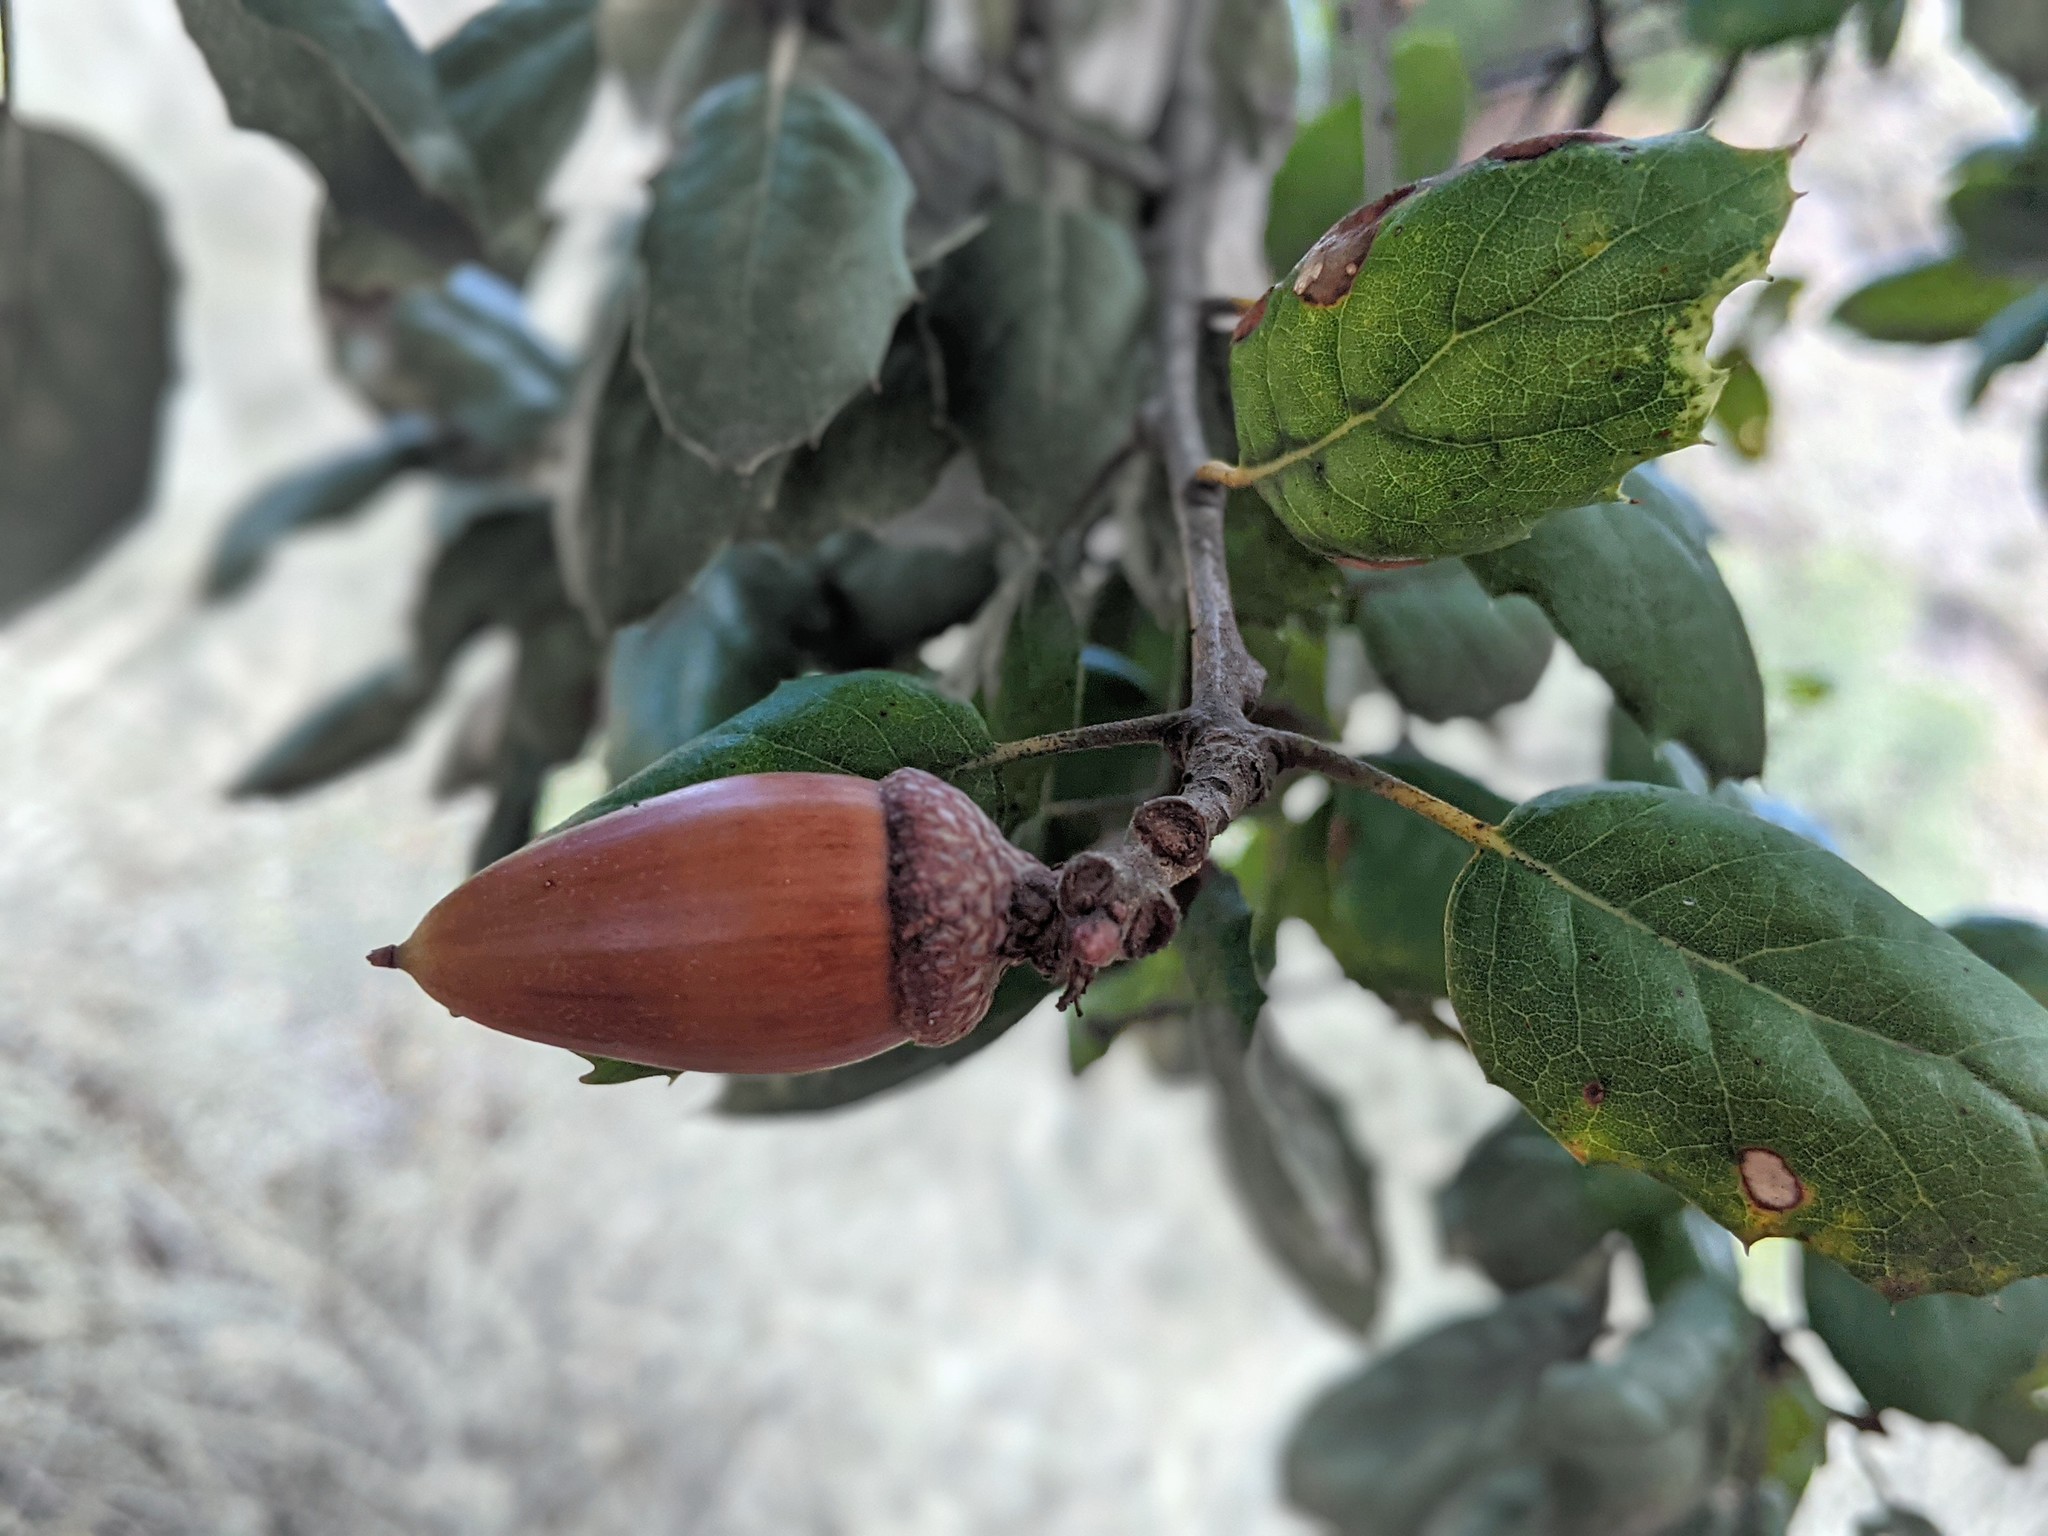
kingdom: Plantae
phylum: Tracheophyta
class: Magnoliopsida
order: Fagales
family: Fagaceae
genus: Quercus
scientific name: Quercus agrifolia
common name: California live oak
